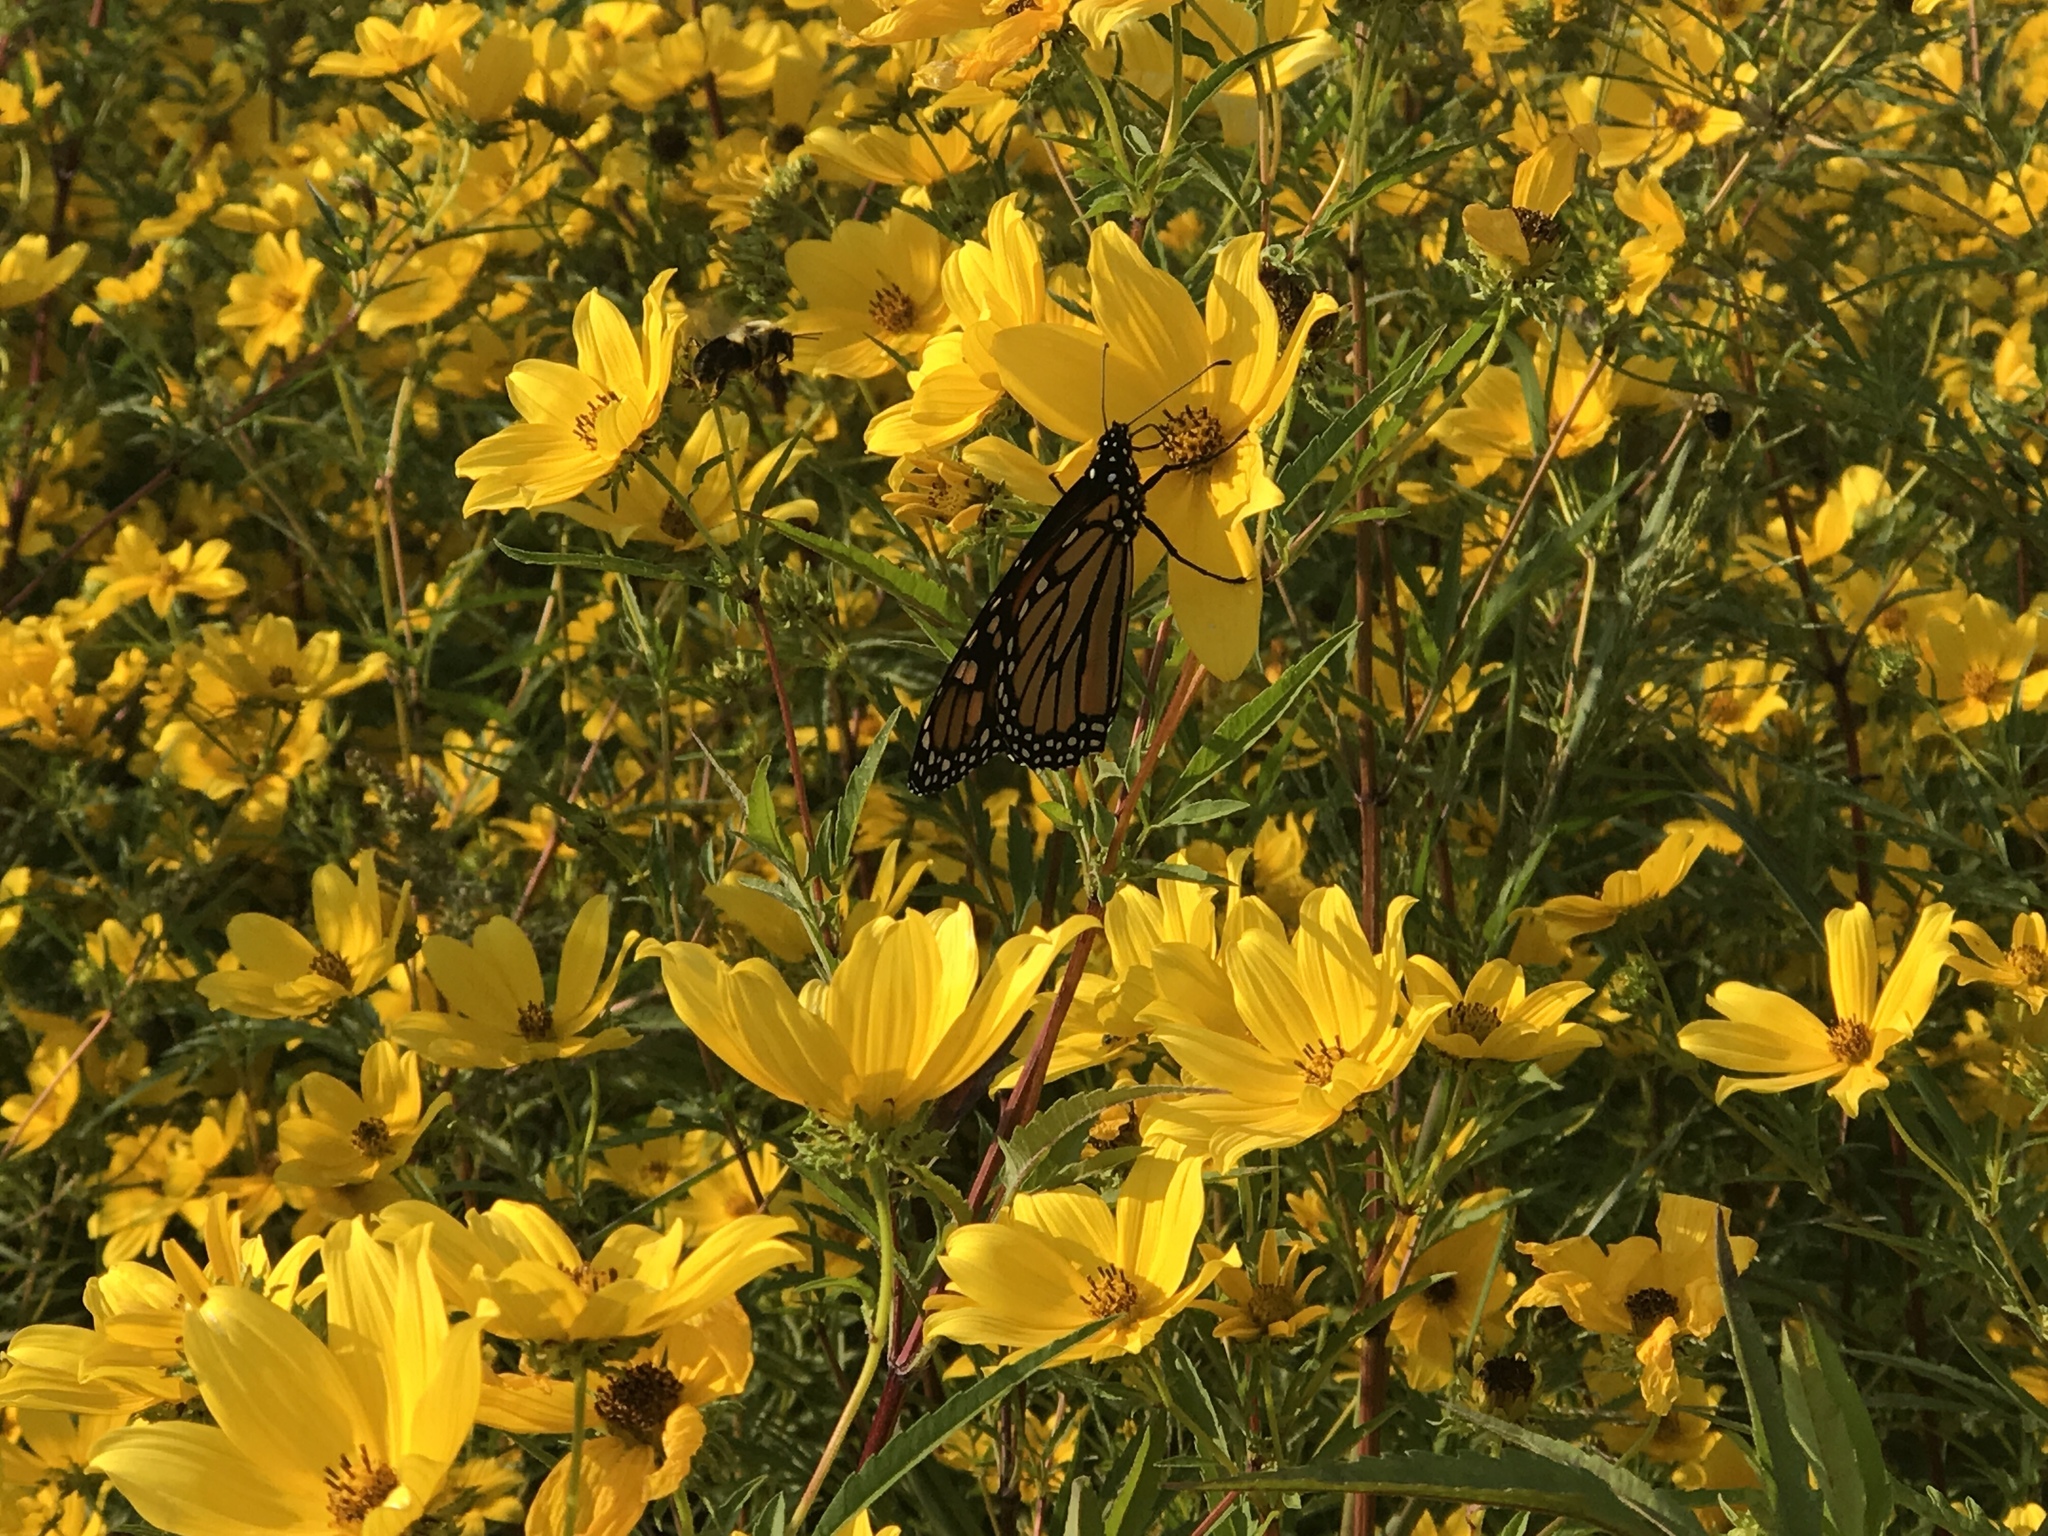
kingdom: Animalia
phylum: Arthropoda
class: Insecta
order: Lepidoptera
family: Nymphalidae
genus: Danaus
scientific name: Danaus plexippus
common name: Monarch
